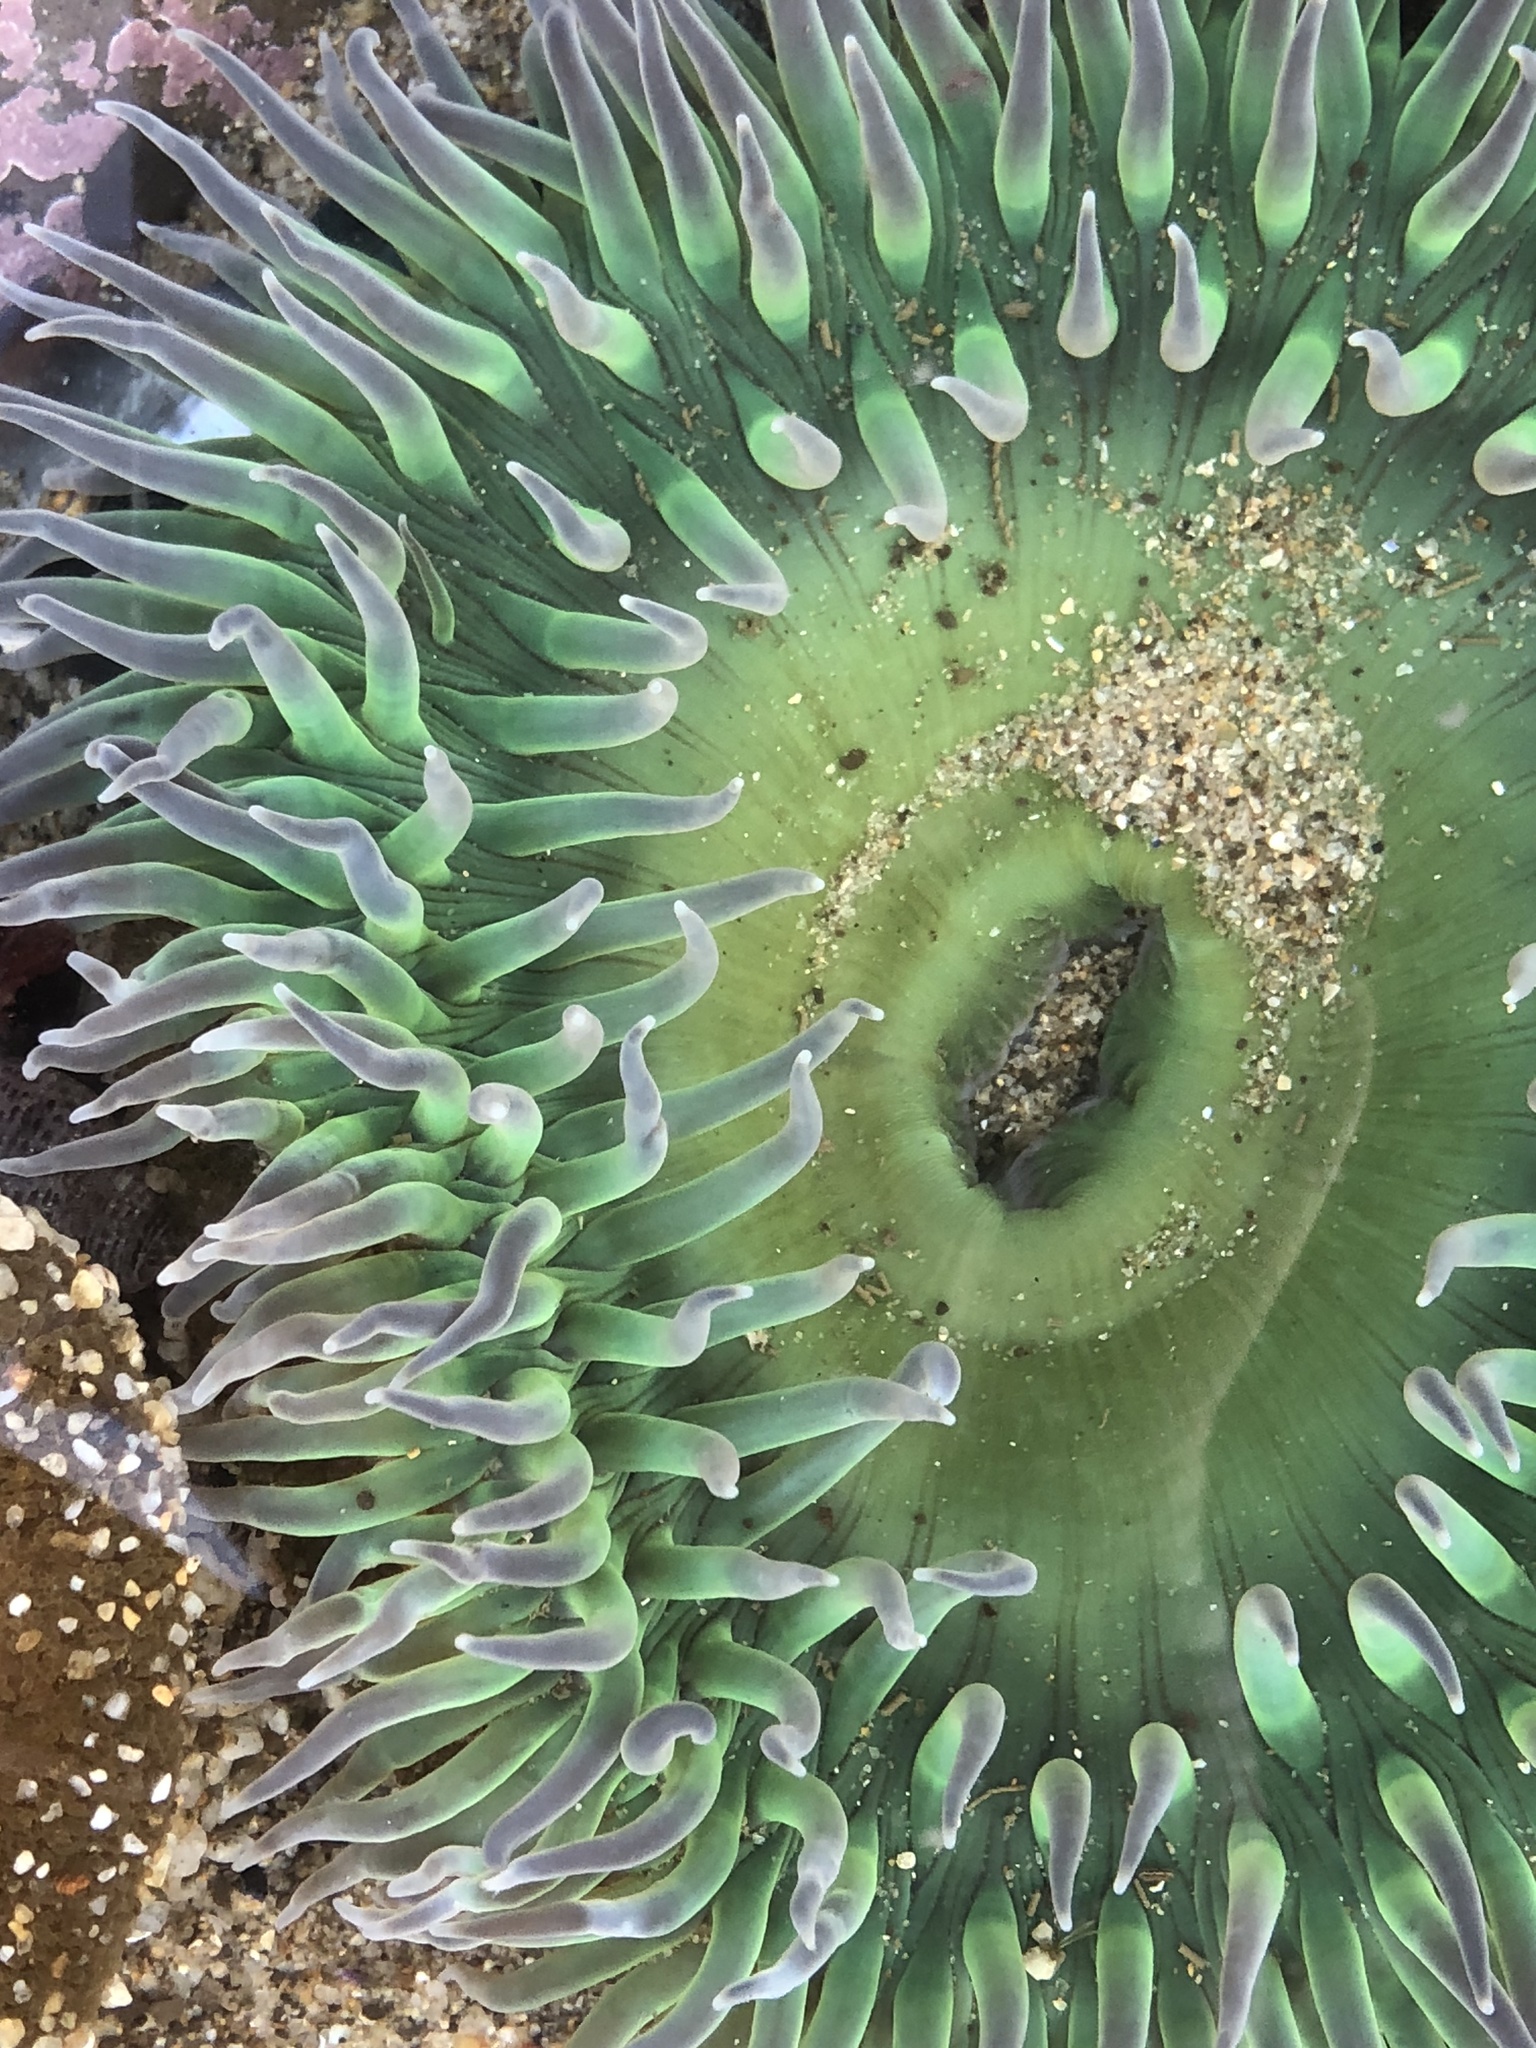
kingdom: Animalia
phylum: Cnidaria
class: Anthozoa
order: Actiniaria
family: Actiniidae
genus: Anthopleura
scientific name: Anthopleura xanthogrammica
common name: Giant green anemone
